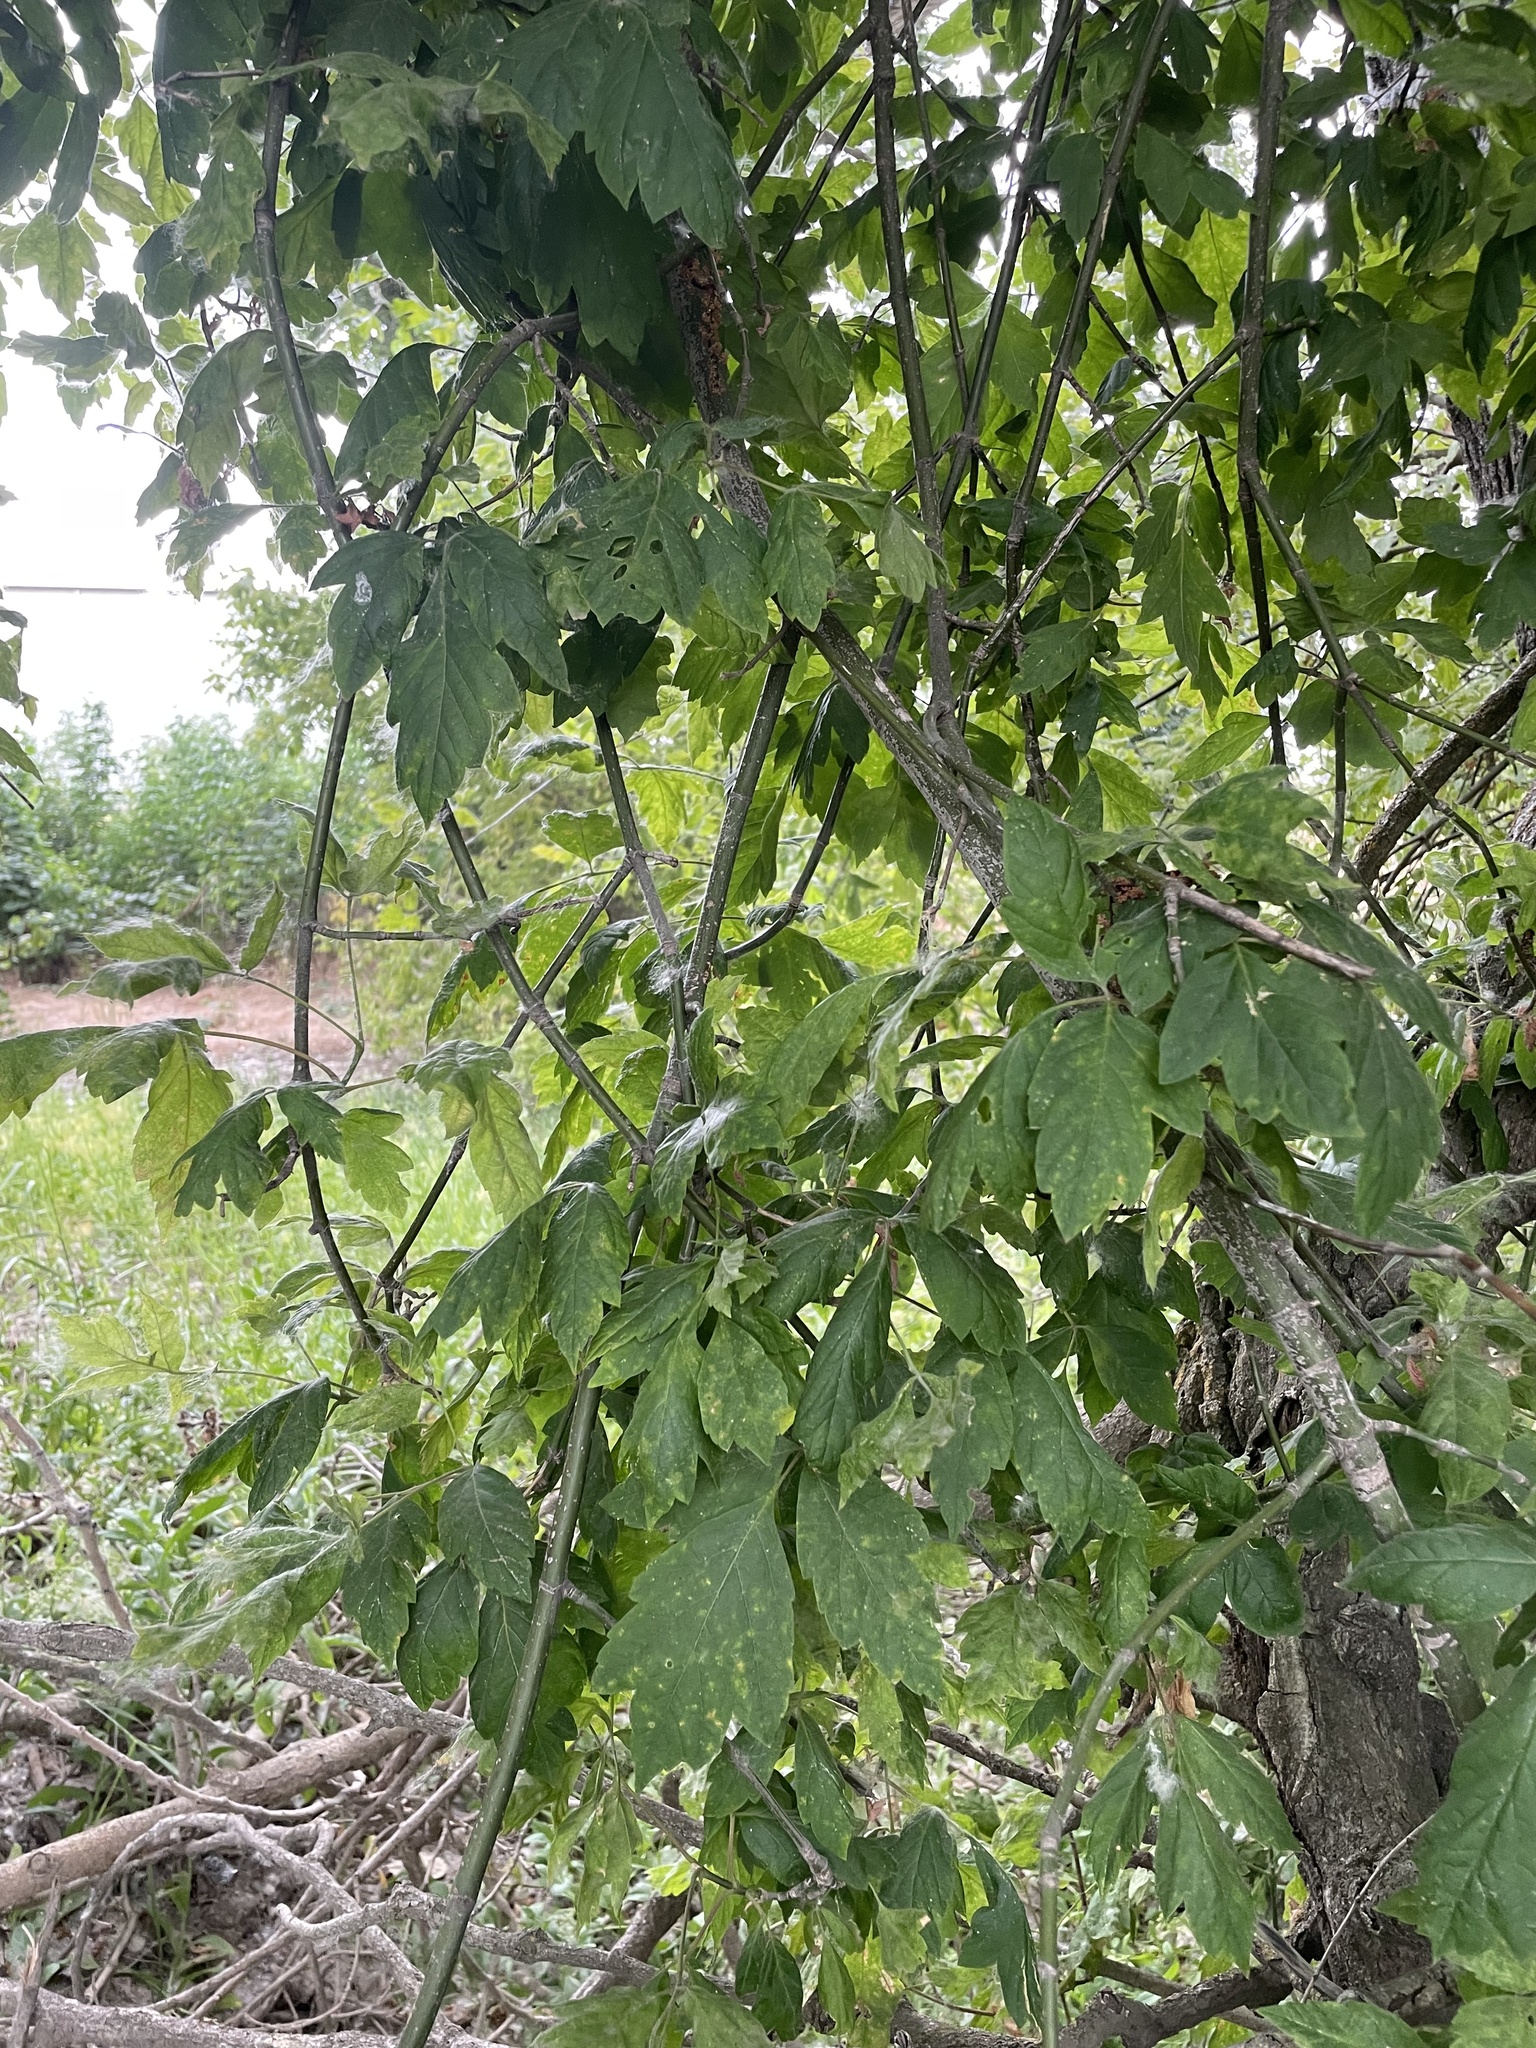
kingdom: Plantae
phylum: Tracheophyta
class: Magnoliopsida
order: Sapindales
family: Sapindaceae
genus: Acer
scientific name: Acer negundo
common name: Ashleaf maple
